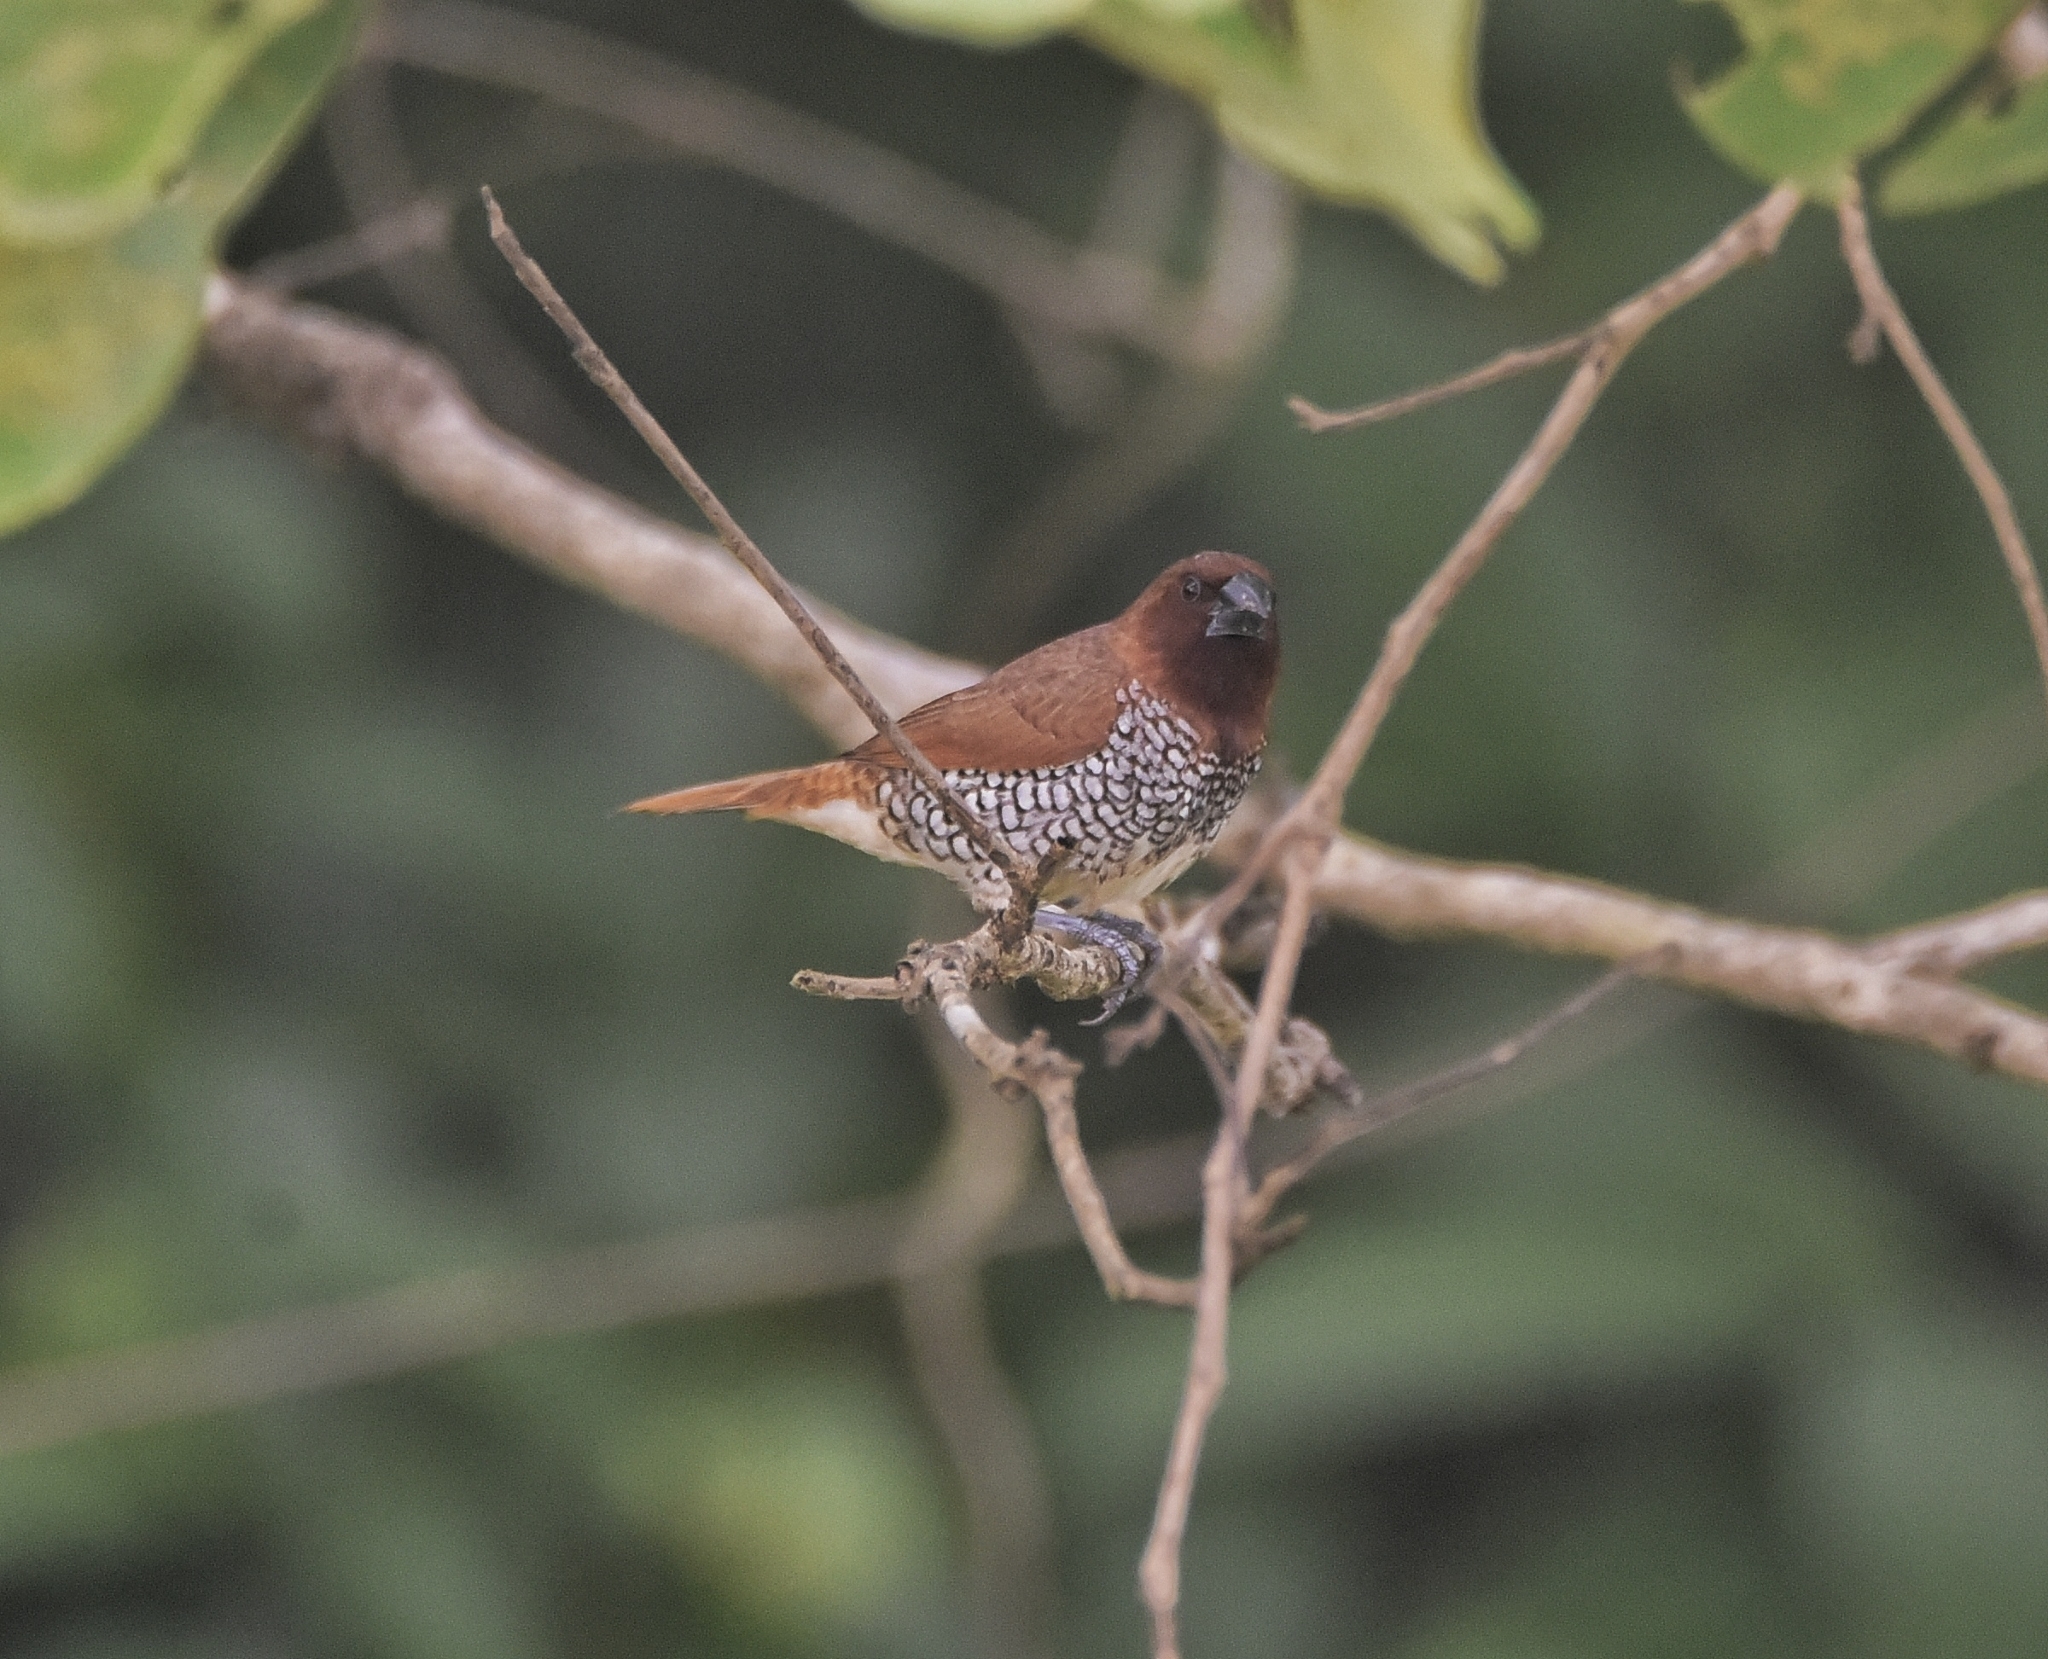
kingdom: Animalia
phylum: Chordata
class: Aves
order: Passeriformes
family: Estrildidae
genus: Lonchura
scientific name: Lonchura punctulata
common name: Scaly-breasted munia
